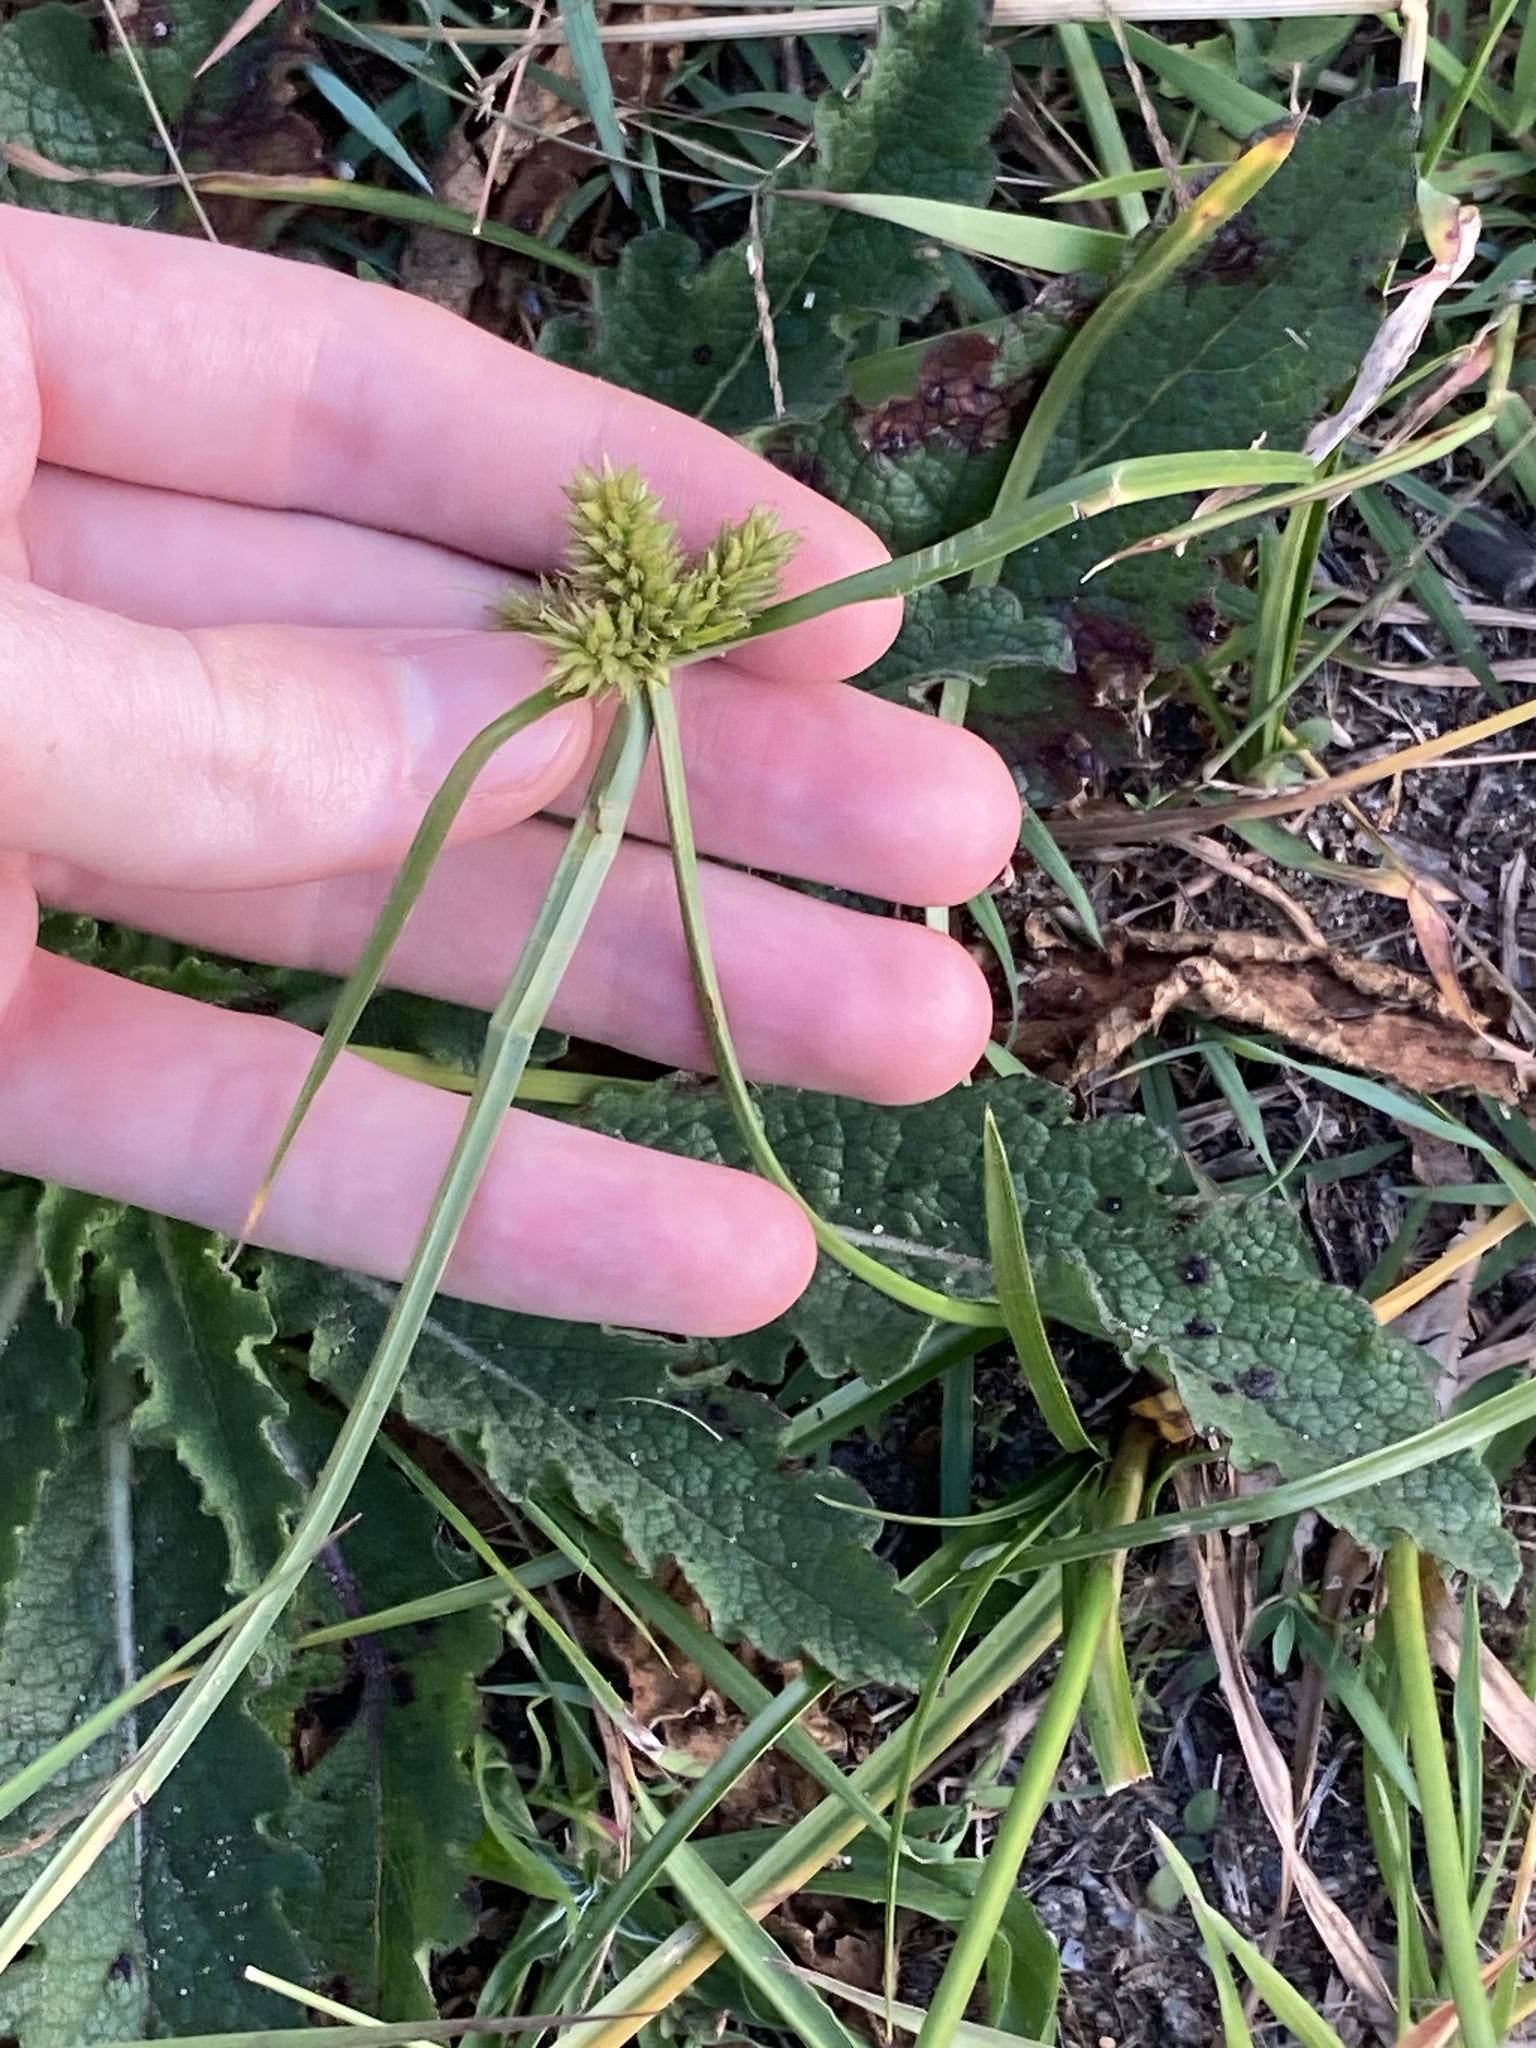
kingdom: Plantae
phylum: Tracheophyta
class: Liliopsida
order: Poales
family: Cyperaceae
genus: Cyperus
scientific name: Cyperus aggregatus
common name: Inflatedscale flatsedge
